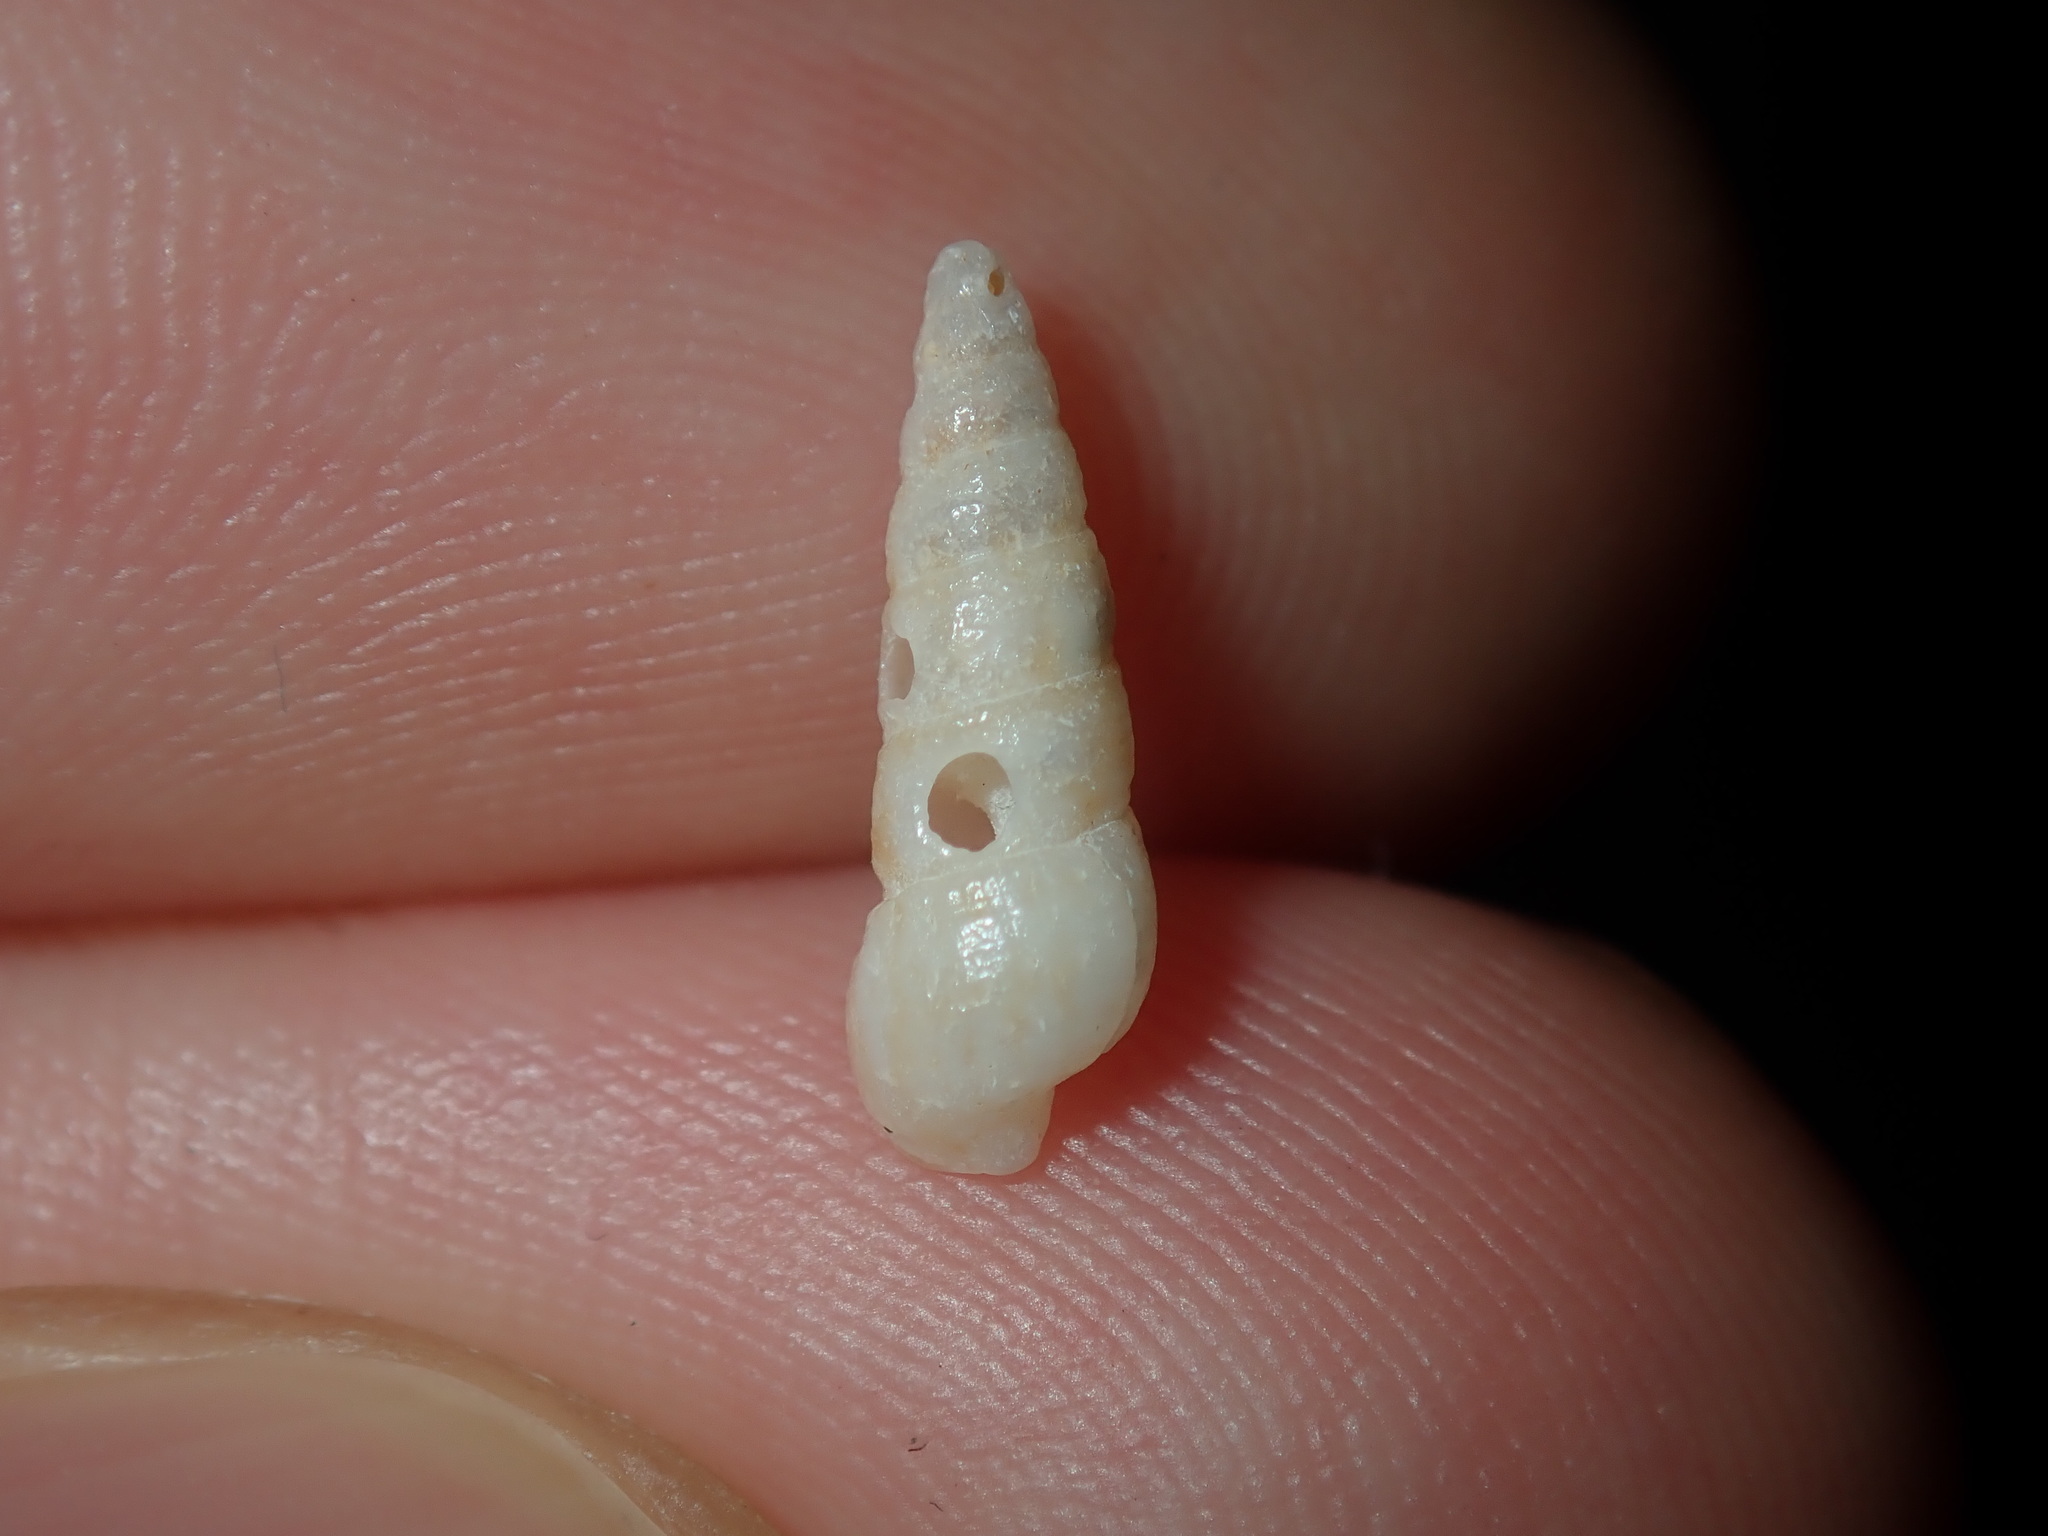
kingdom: Animalia
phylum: Mollusca
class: Gastropoda
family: Cerithiidae
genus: Cacozeliana
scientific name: Cacozeliana granarium
